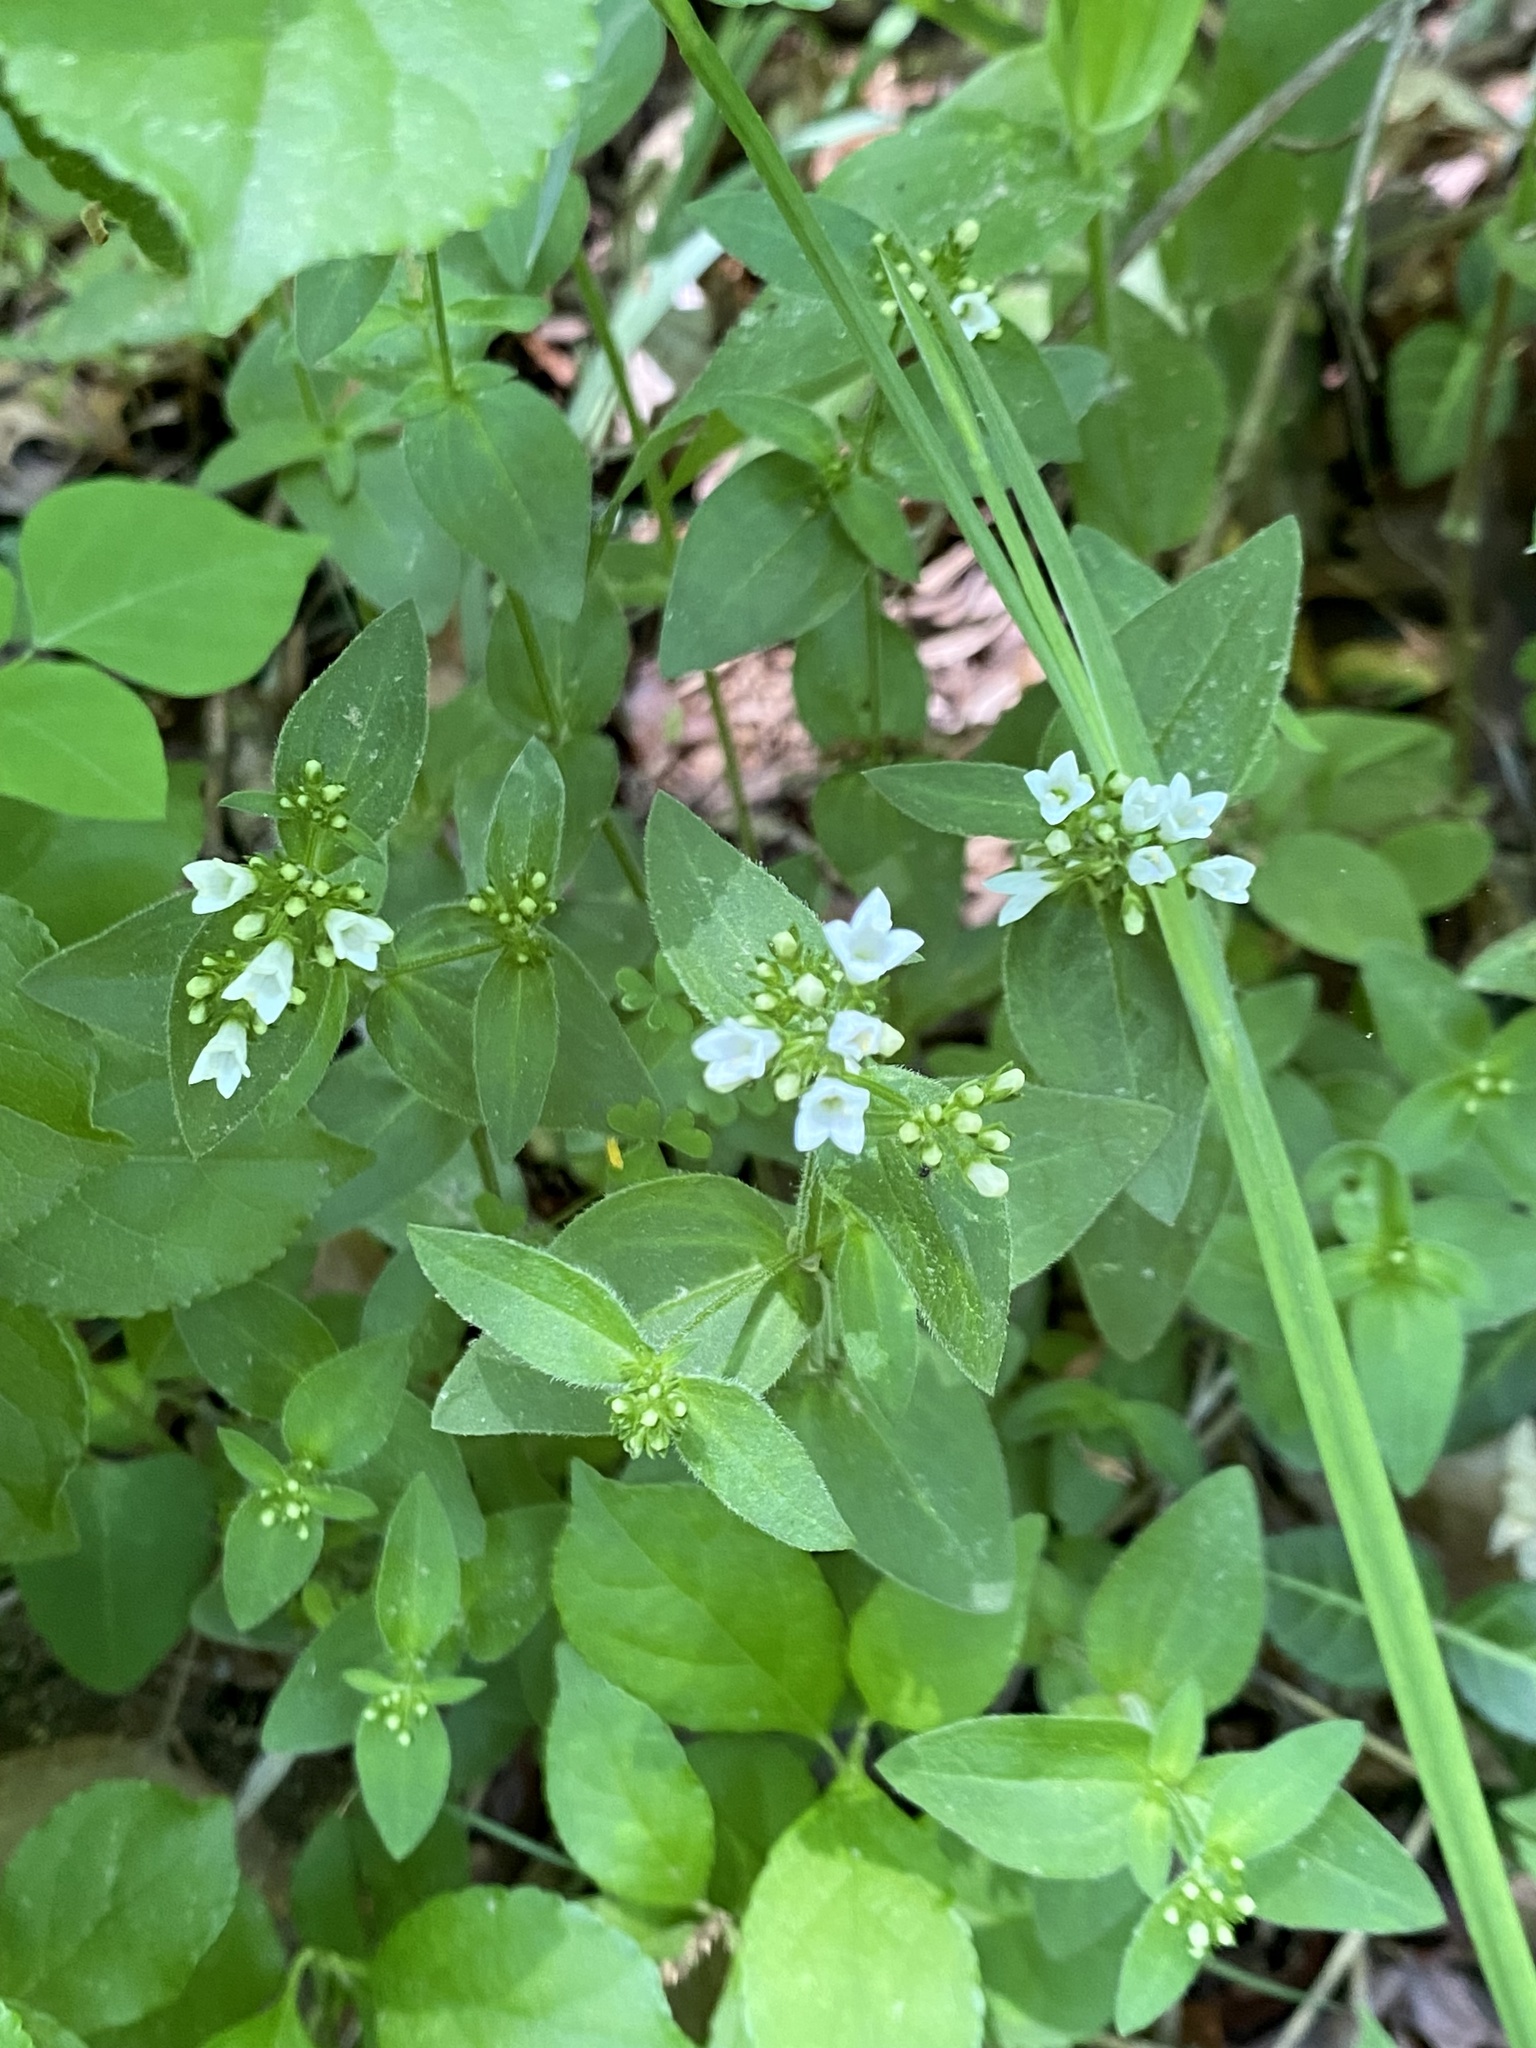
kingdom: Plantae
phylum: Tracheophyta
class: Magnoliopsida
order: Gentianales
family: Rubiaceae
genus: Houstonia
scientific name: Houstonia purpurea
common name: Summer bluet
